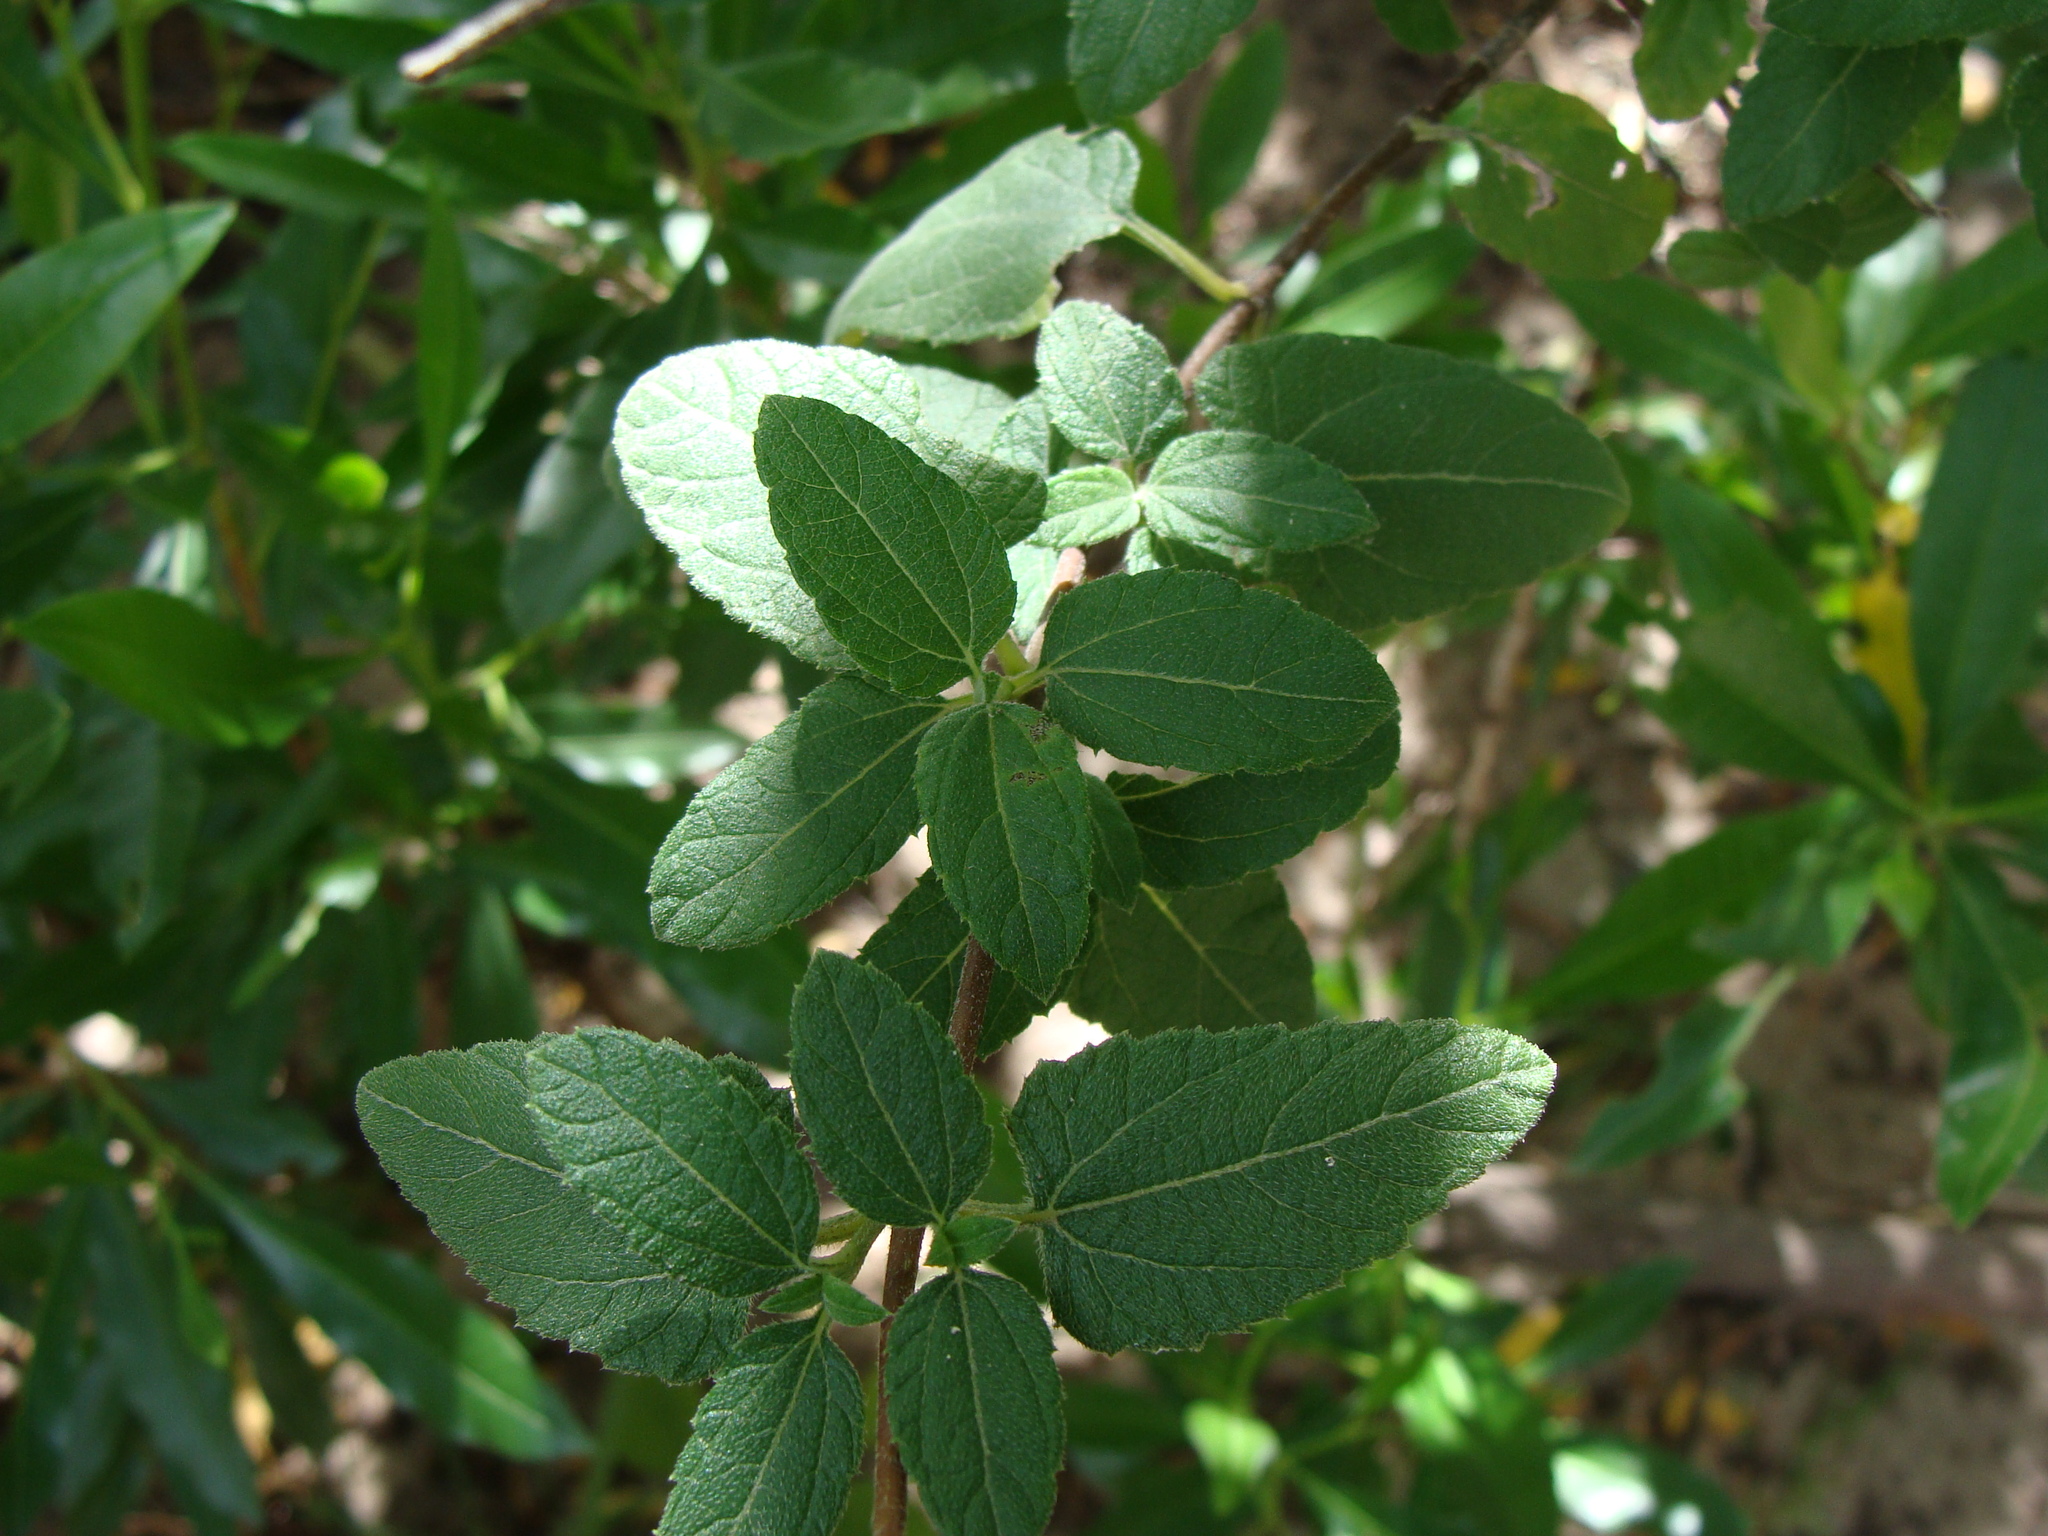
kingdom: Plantae
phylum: Tracheophyta
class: Magnoliopsida
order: Asterales
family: Asteraceae
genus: Jefea
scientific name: Jefea lantanifolia
